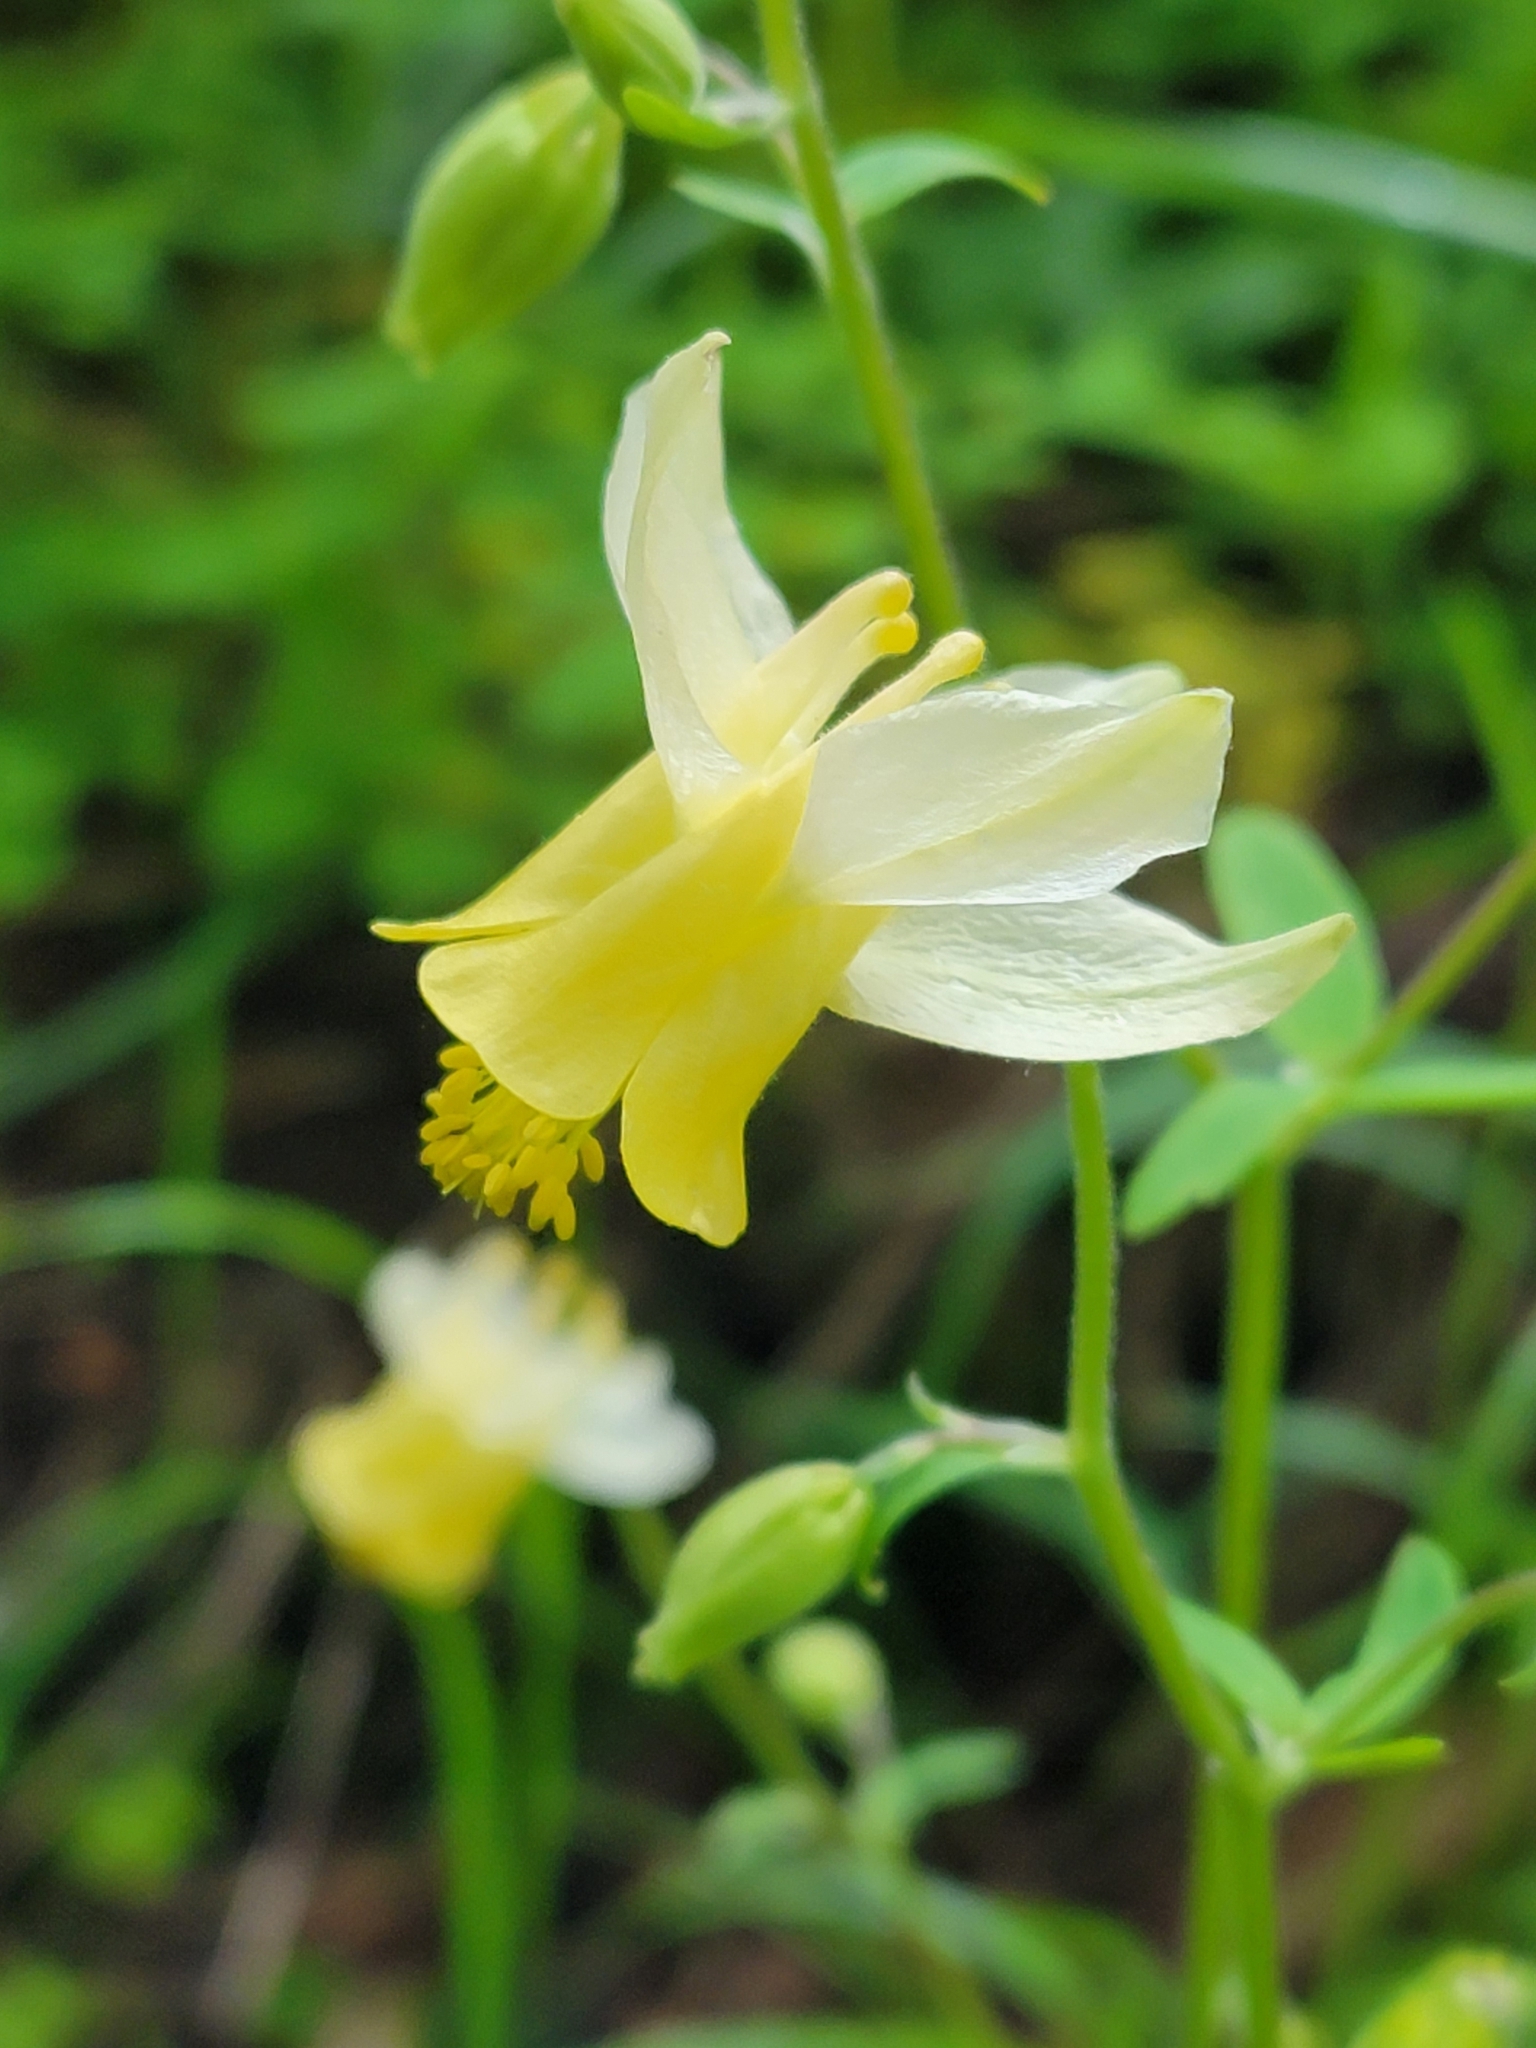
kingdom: Plantae
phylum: Tracheophyta
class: Magnoliopsida
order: Ranunculales
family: Ranunculaceae
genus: Aquilegia
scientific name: Aquilegia flavescens
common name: Yellow columbine
